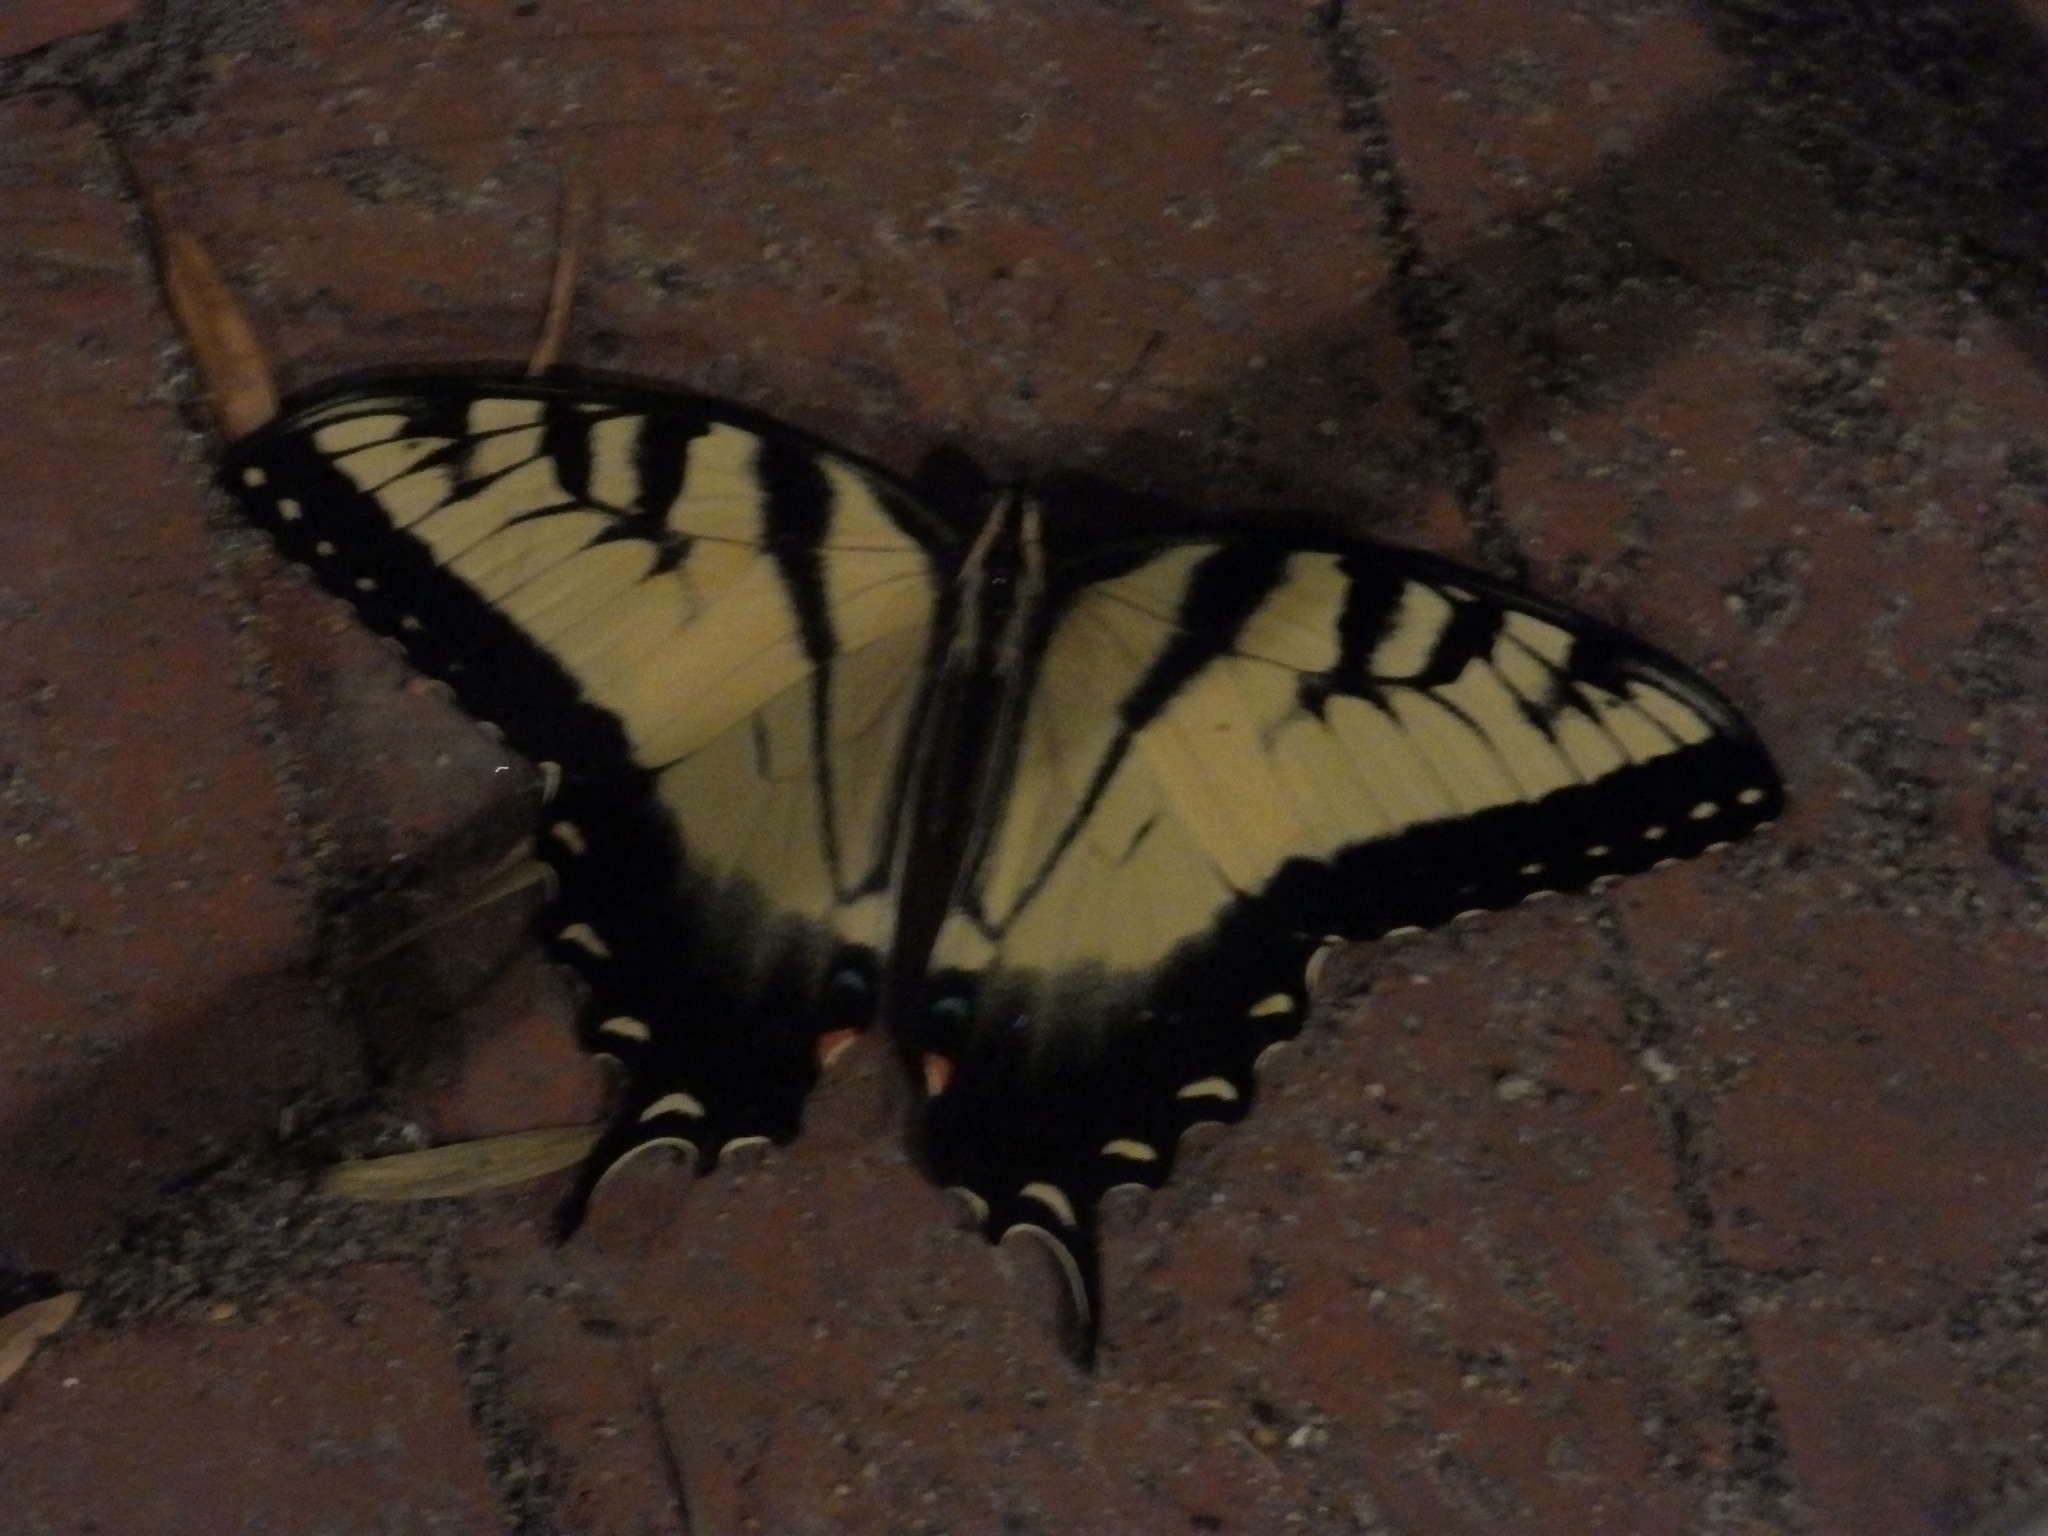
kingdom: Animalia
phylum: Arthropoda
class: Insecta
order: Lepidoptera
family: Papilionidae
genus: Papilio
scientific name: Papilio glaucus
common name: Tiger swallowtail
